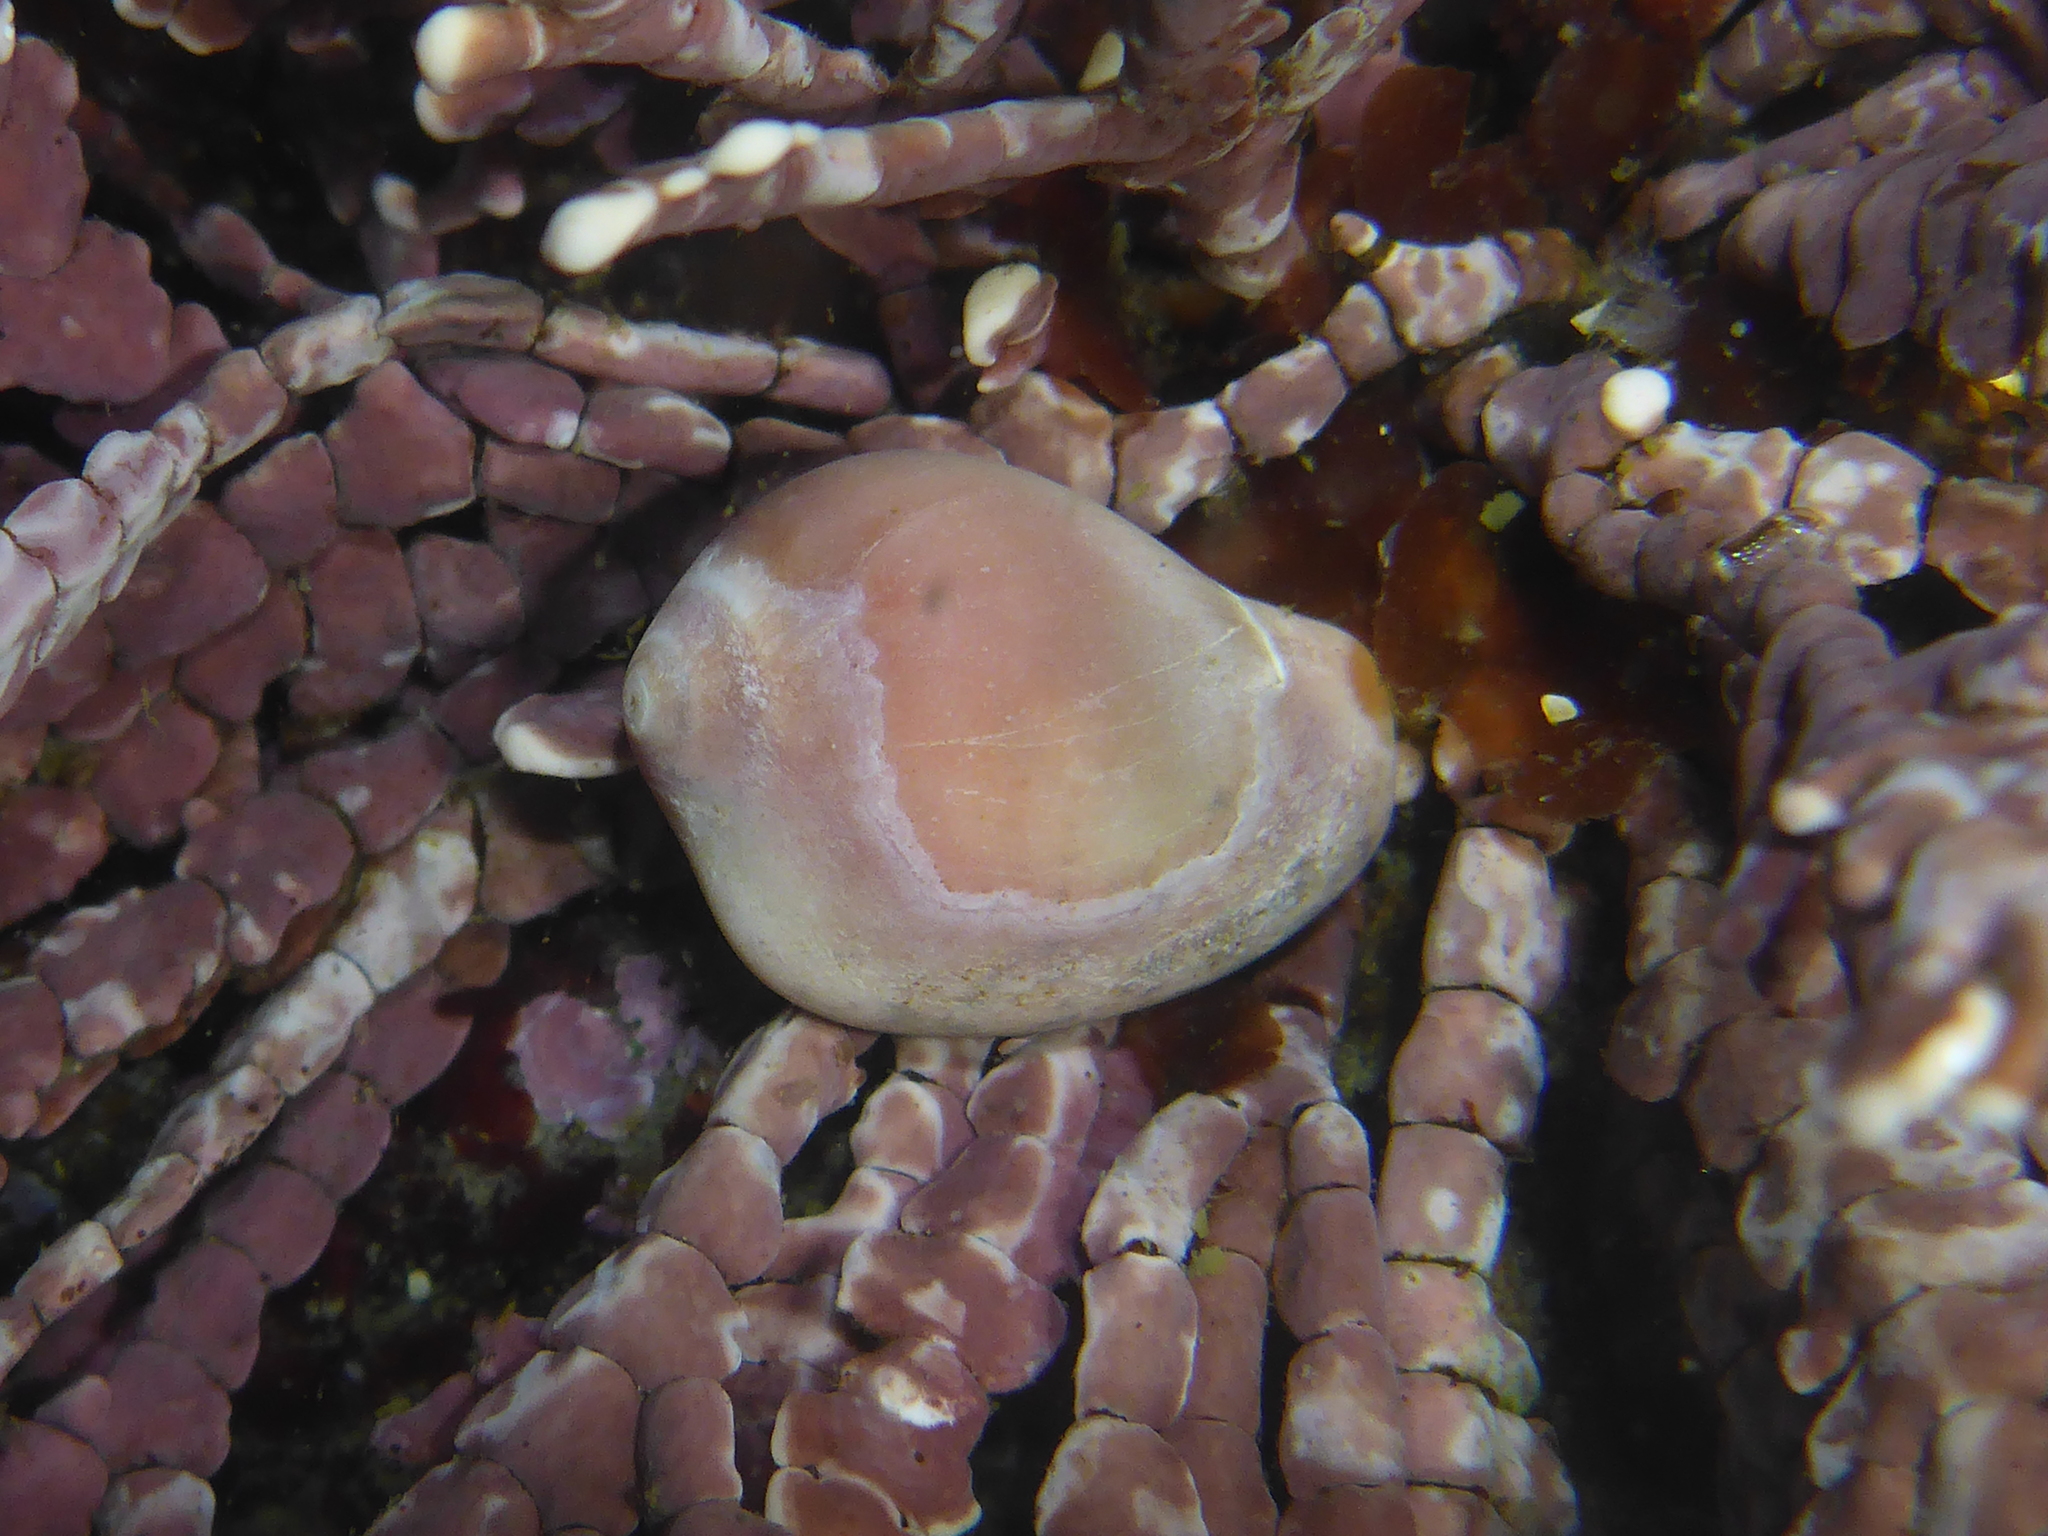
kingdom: Animalia
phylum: Mollusca
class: Gastropoda
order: Littorinimorpha
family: Eratoidae
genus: Hespererato
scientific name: Hespererato vitellina
